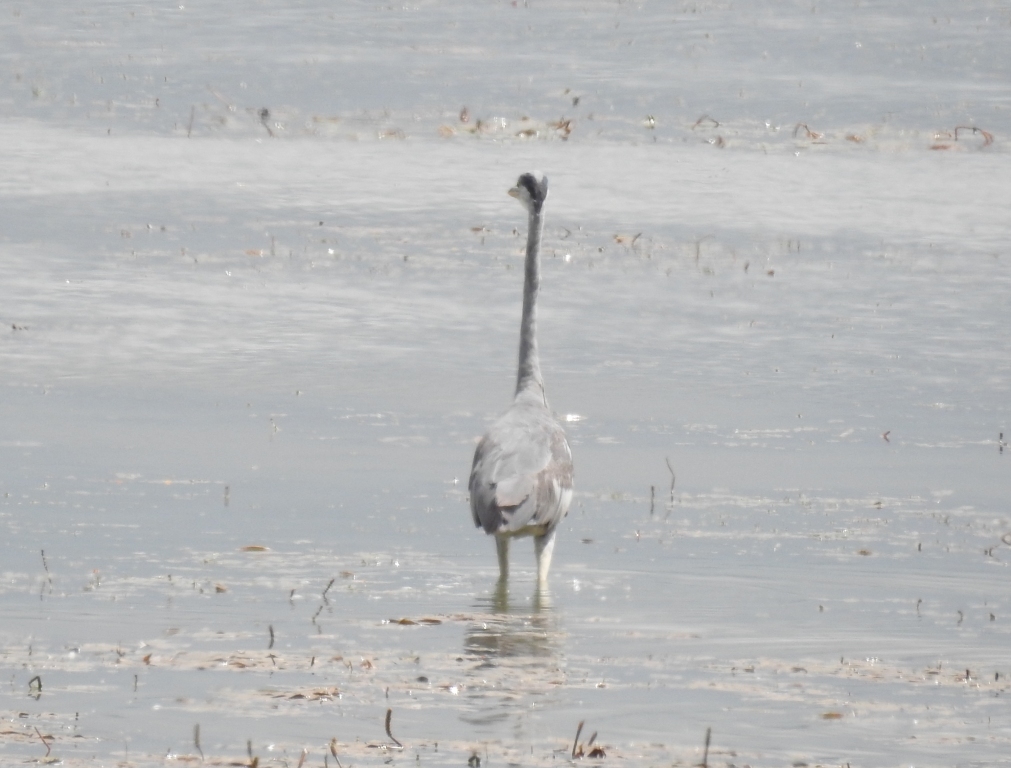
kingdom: Animalia
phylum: Chordata
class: Aves
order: Pelecaniformes
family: Ardeidae
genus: Ardea
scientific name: Ardea cinerea
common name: Grey heron
